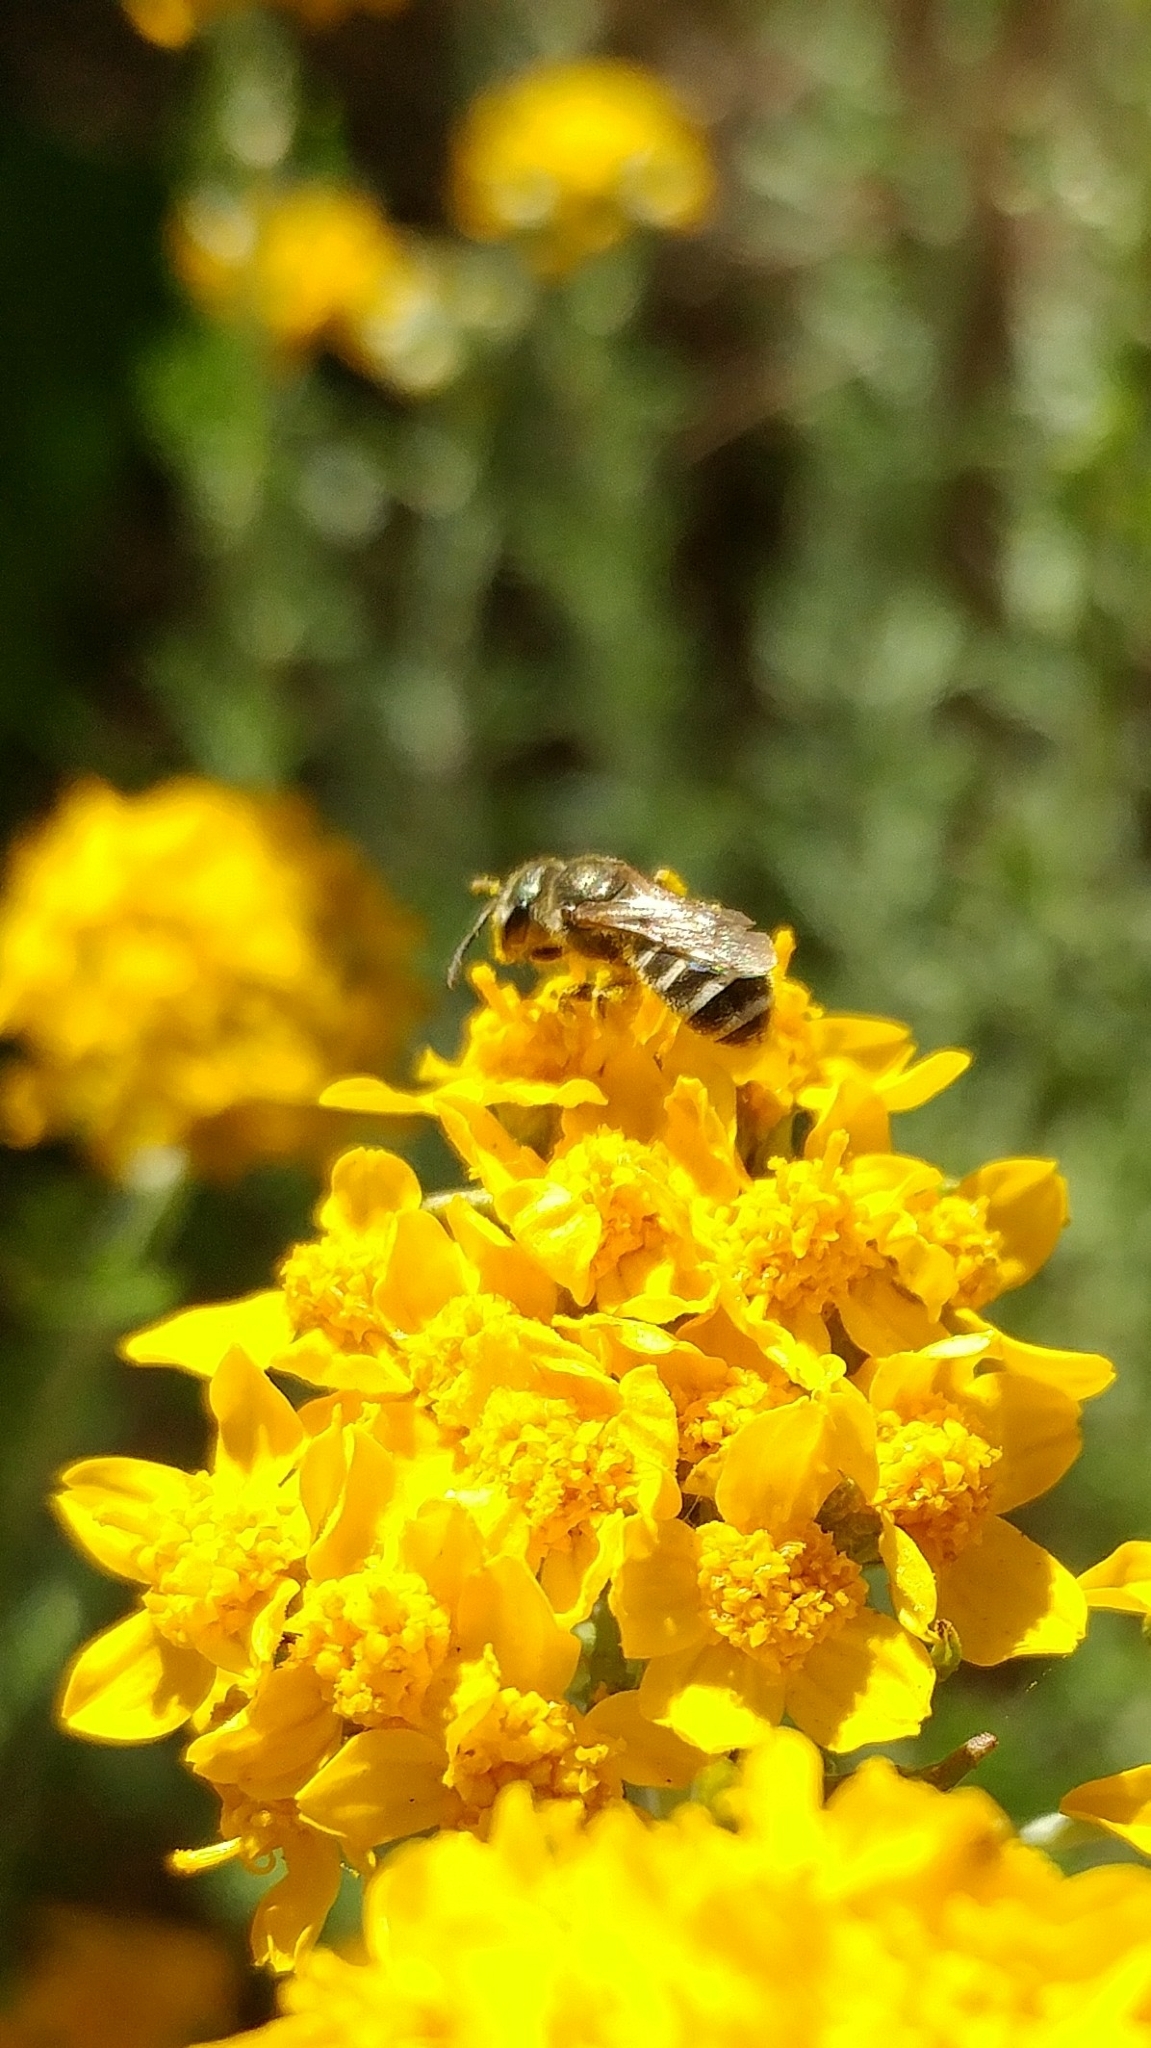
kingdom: Animalia
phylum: Arthropoda
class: Insecta
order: Hymenoptera
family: Halictidae
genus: Halictus
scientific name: Halictus tripartitus
